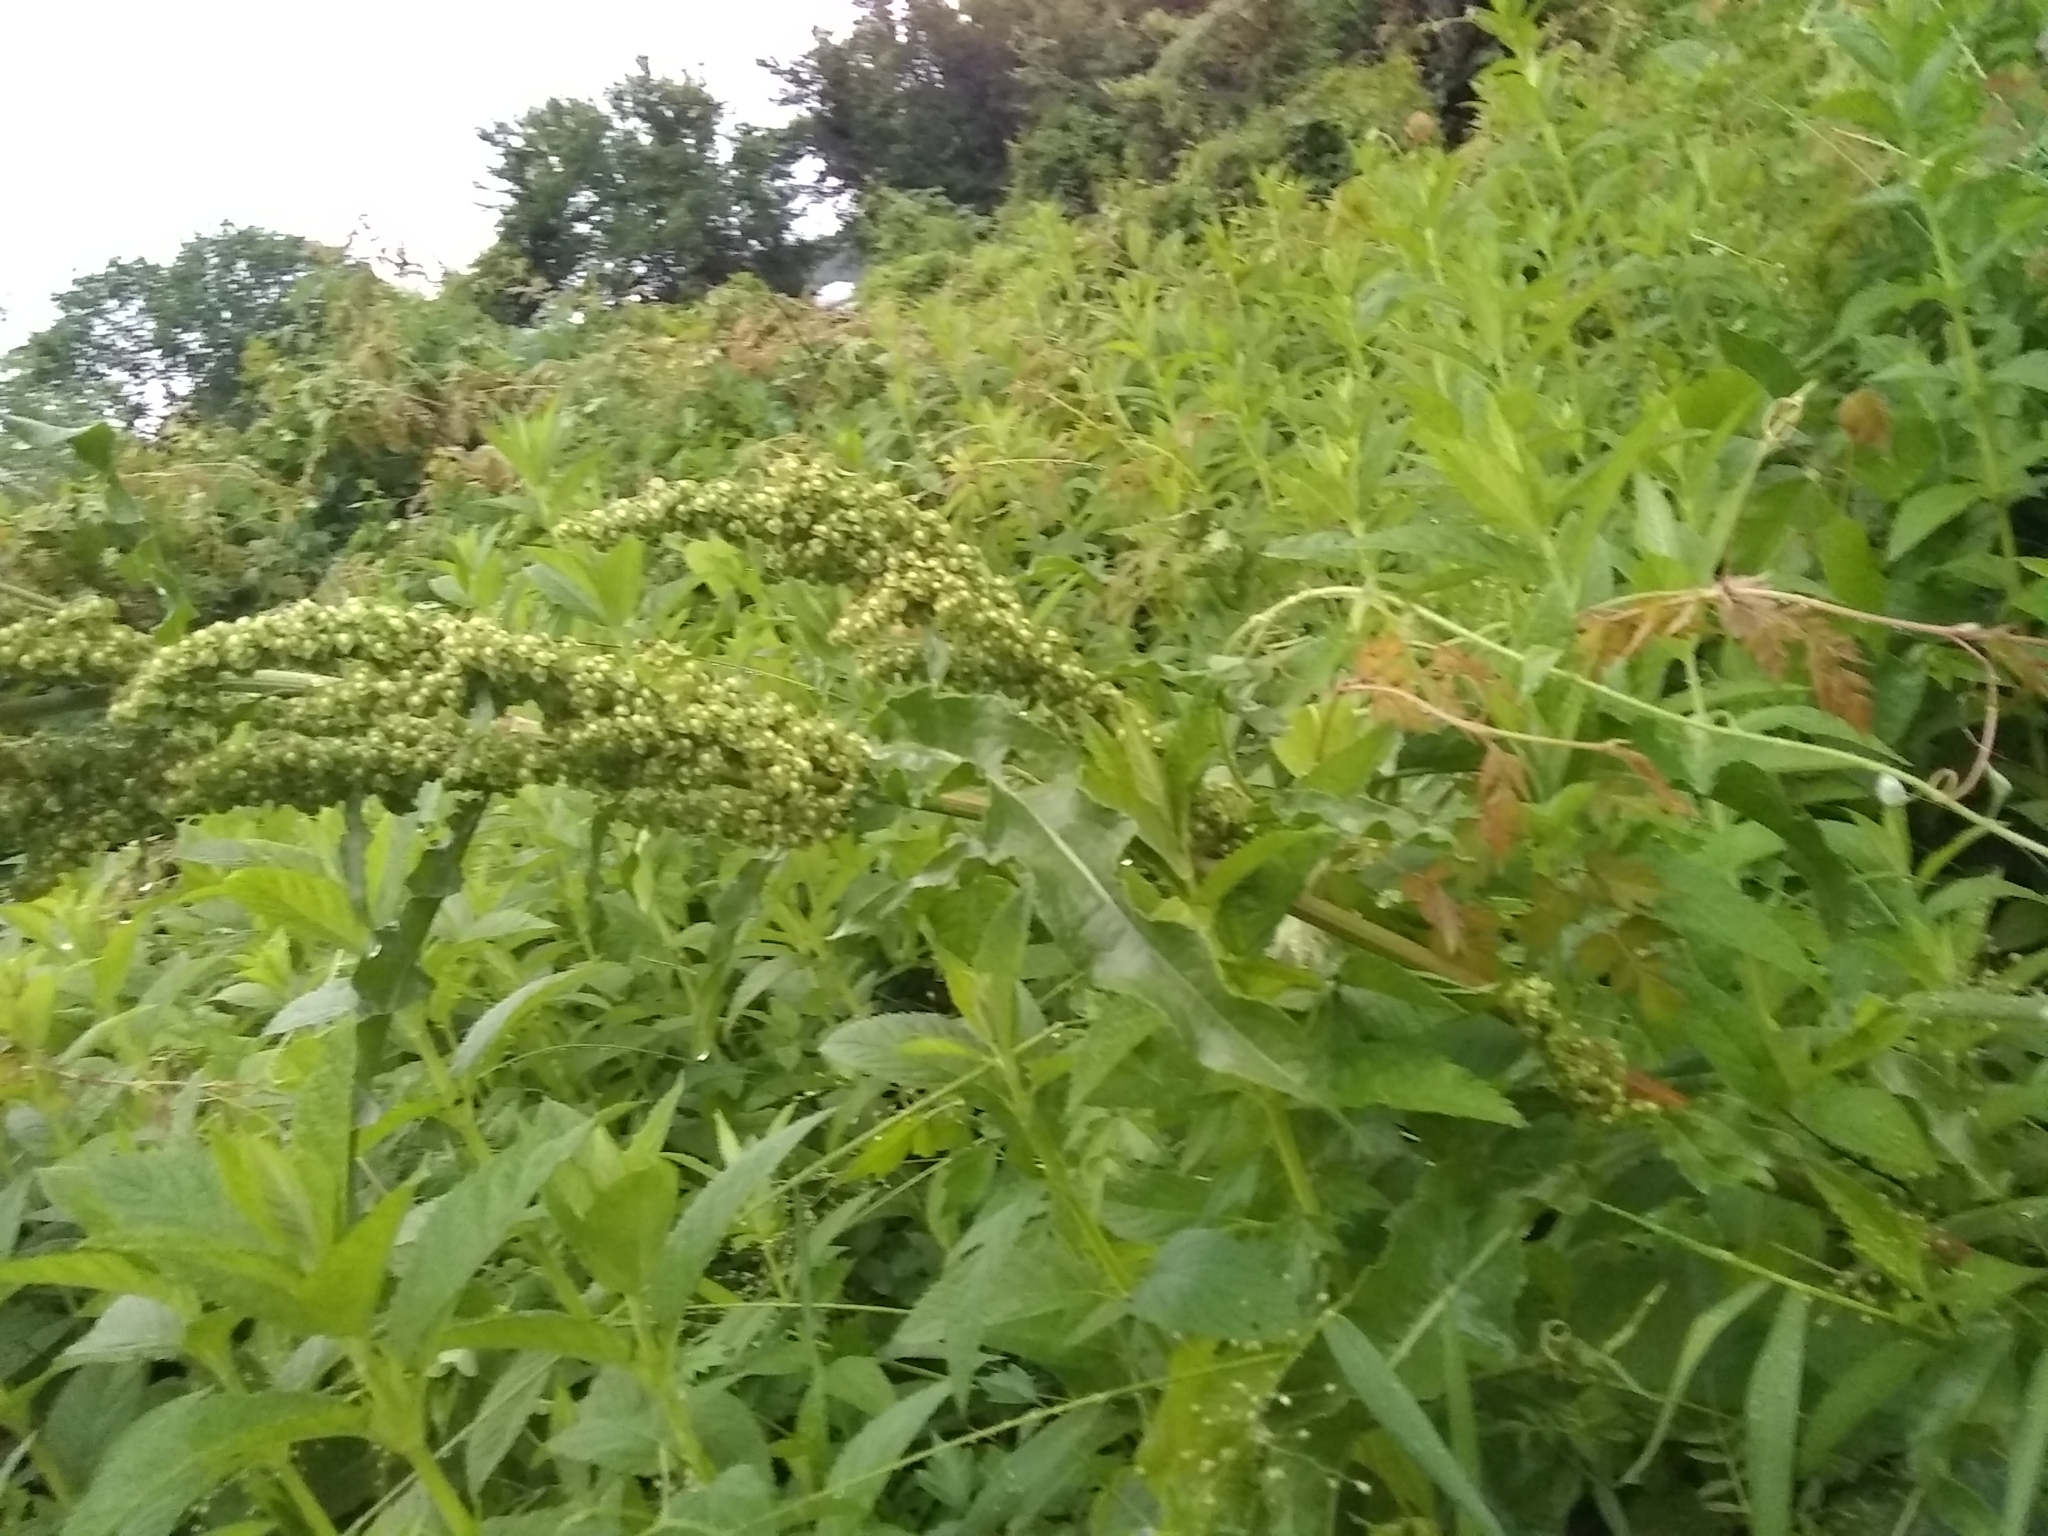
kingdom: Plantae
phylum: Tracheophyta
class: Magnoliopsida
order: Caryophyllales
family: Polygonaceae
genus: Rumex
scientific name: Rumex crispus
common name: Curled dock
